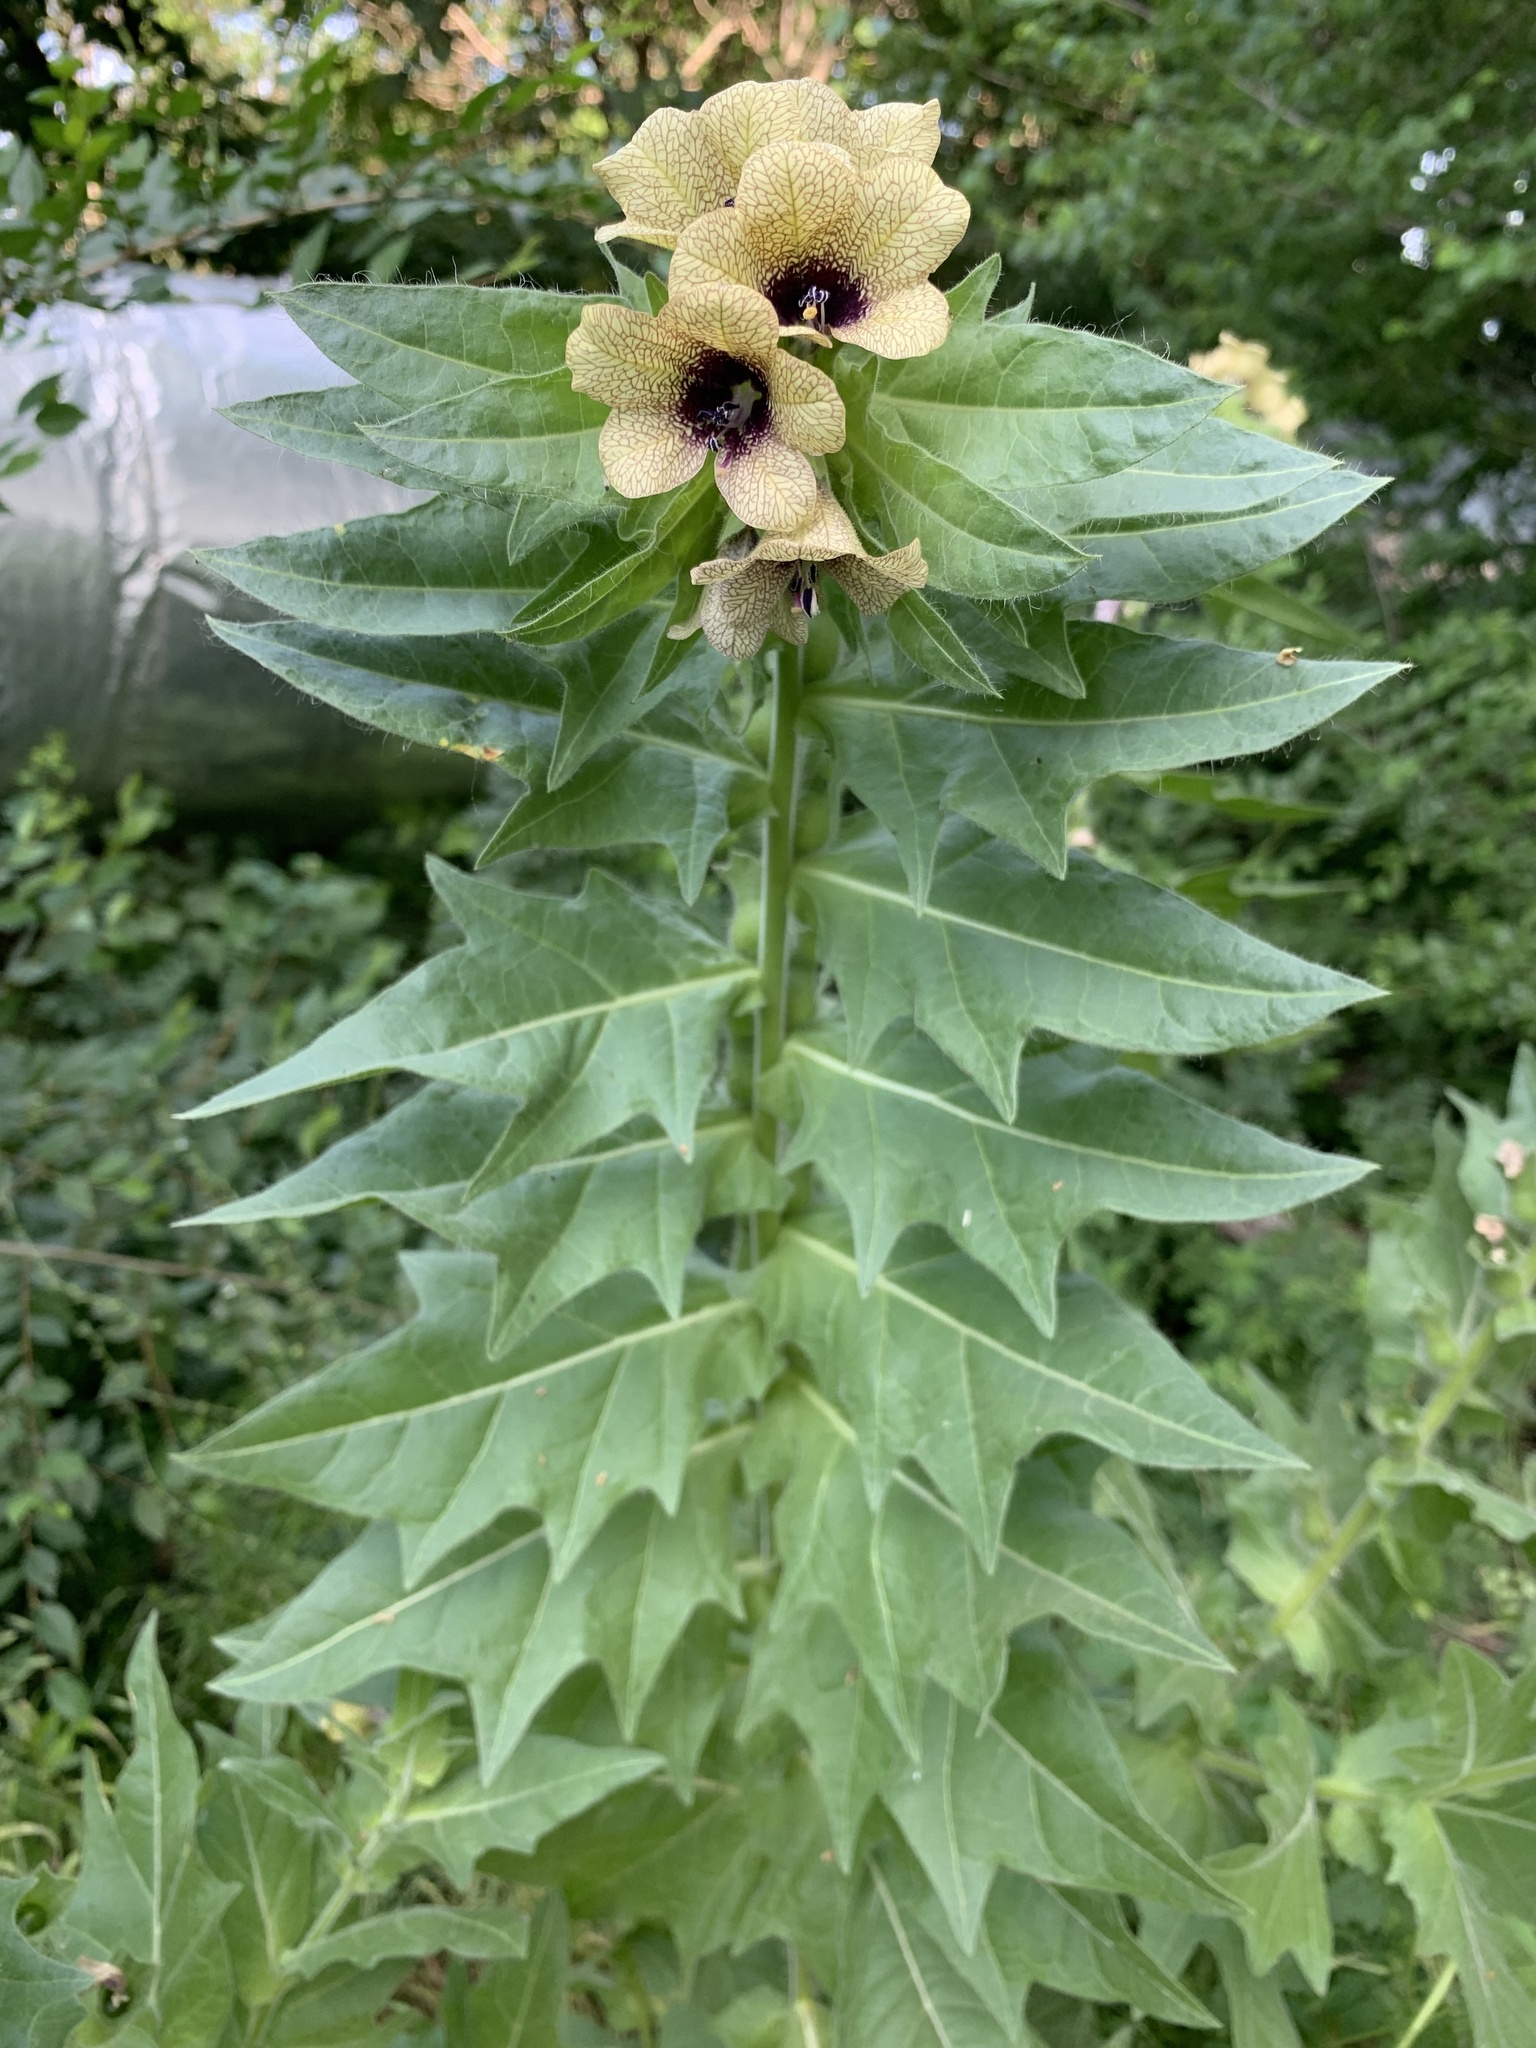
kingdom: Plantae
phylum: Tracheophyta
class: Magnoliopsida
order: Solanales
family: Solanaceae
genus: Hyoscyamus
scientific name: Hyoscyamus niger
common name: Henbane
